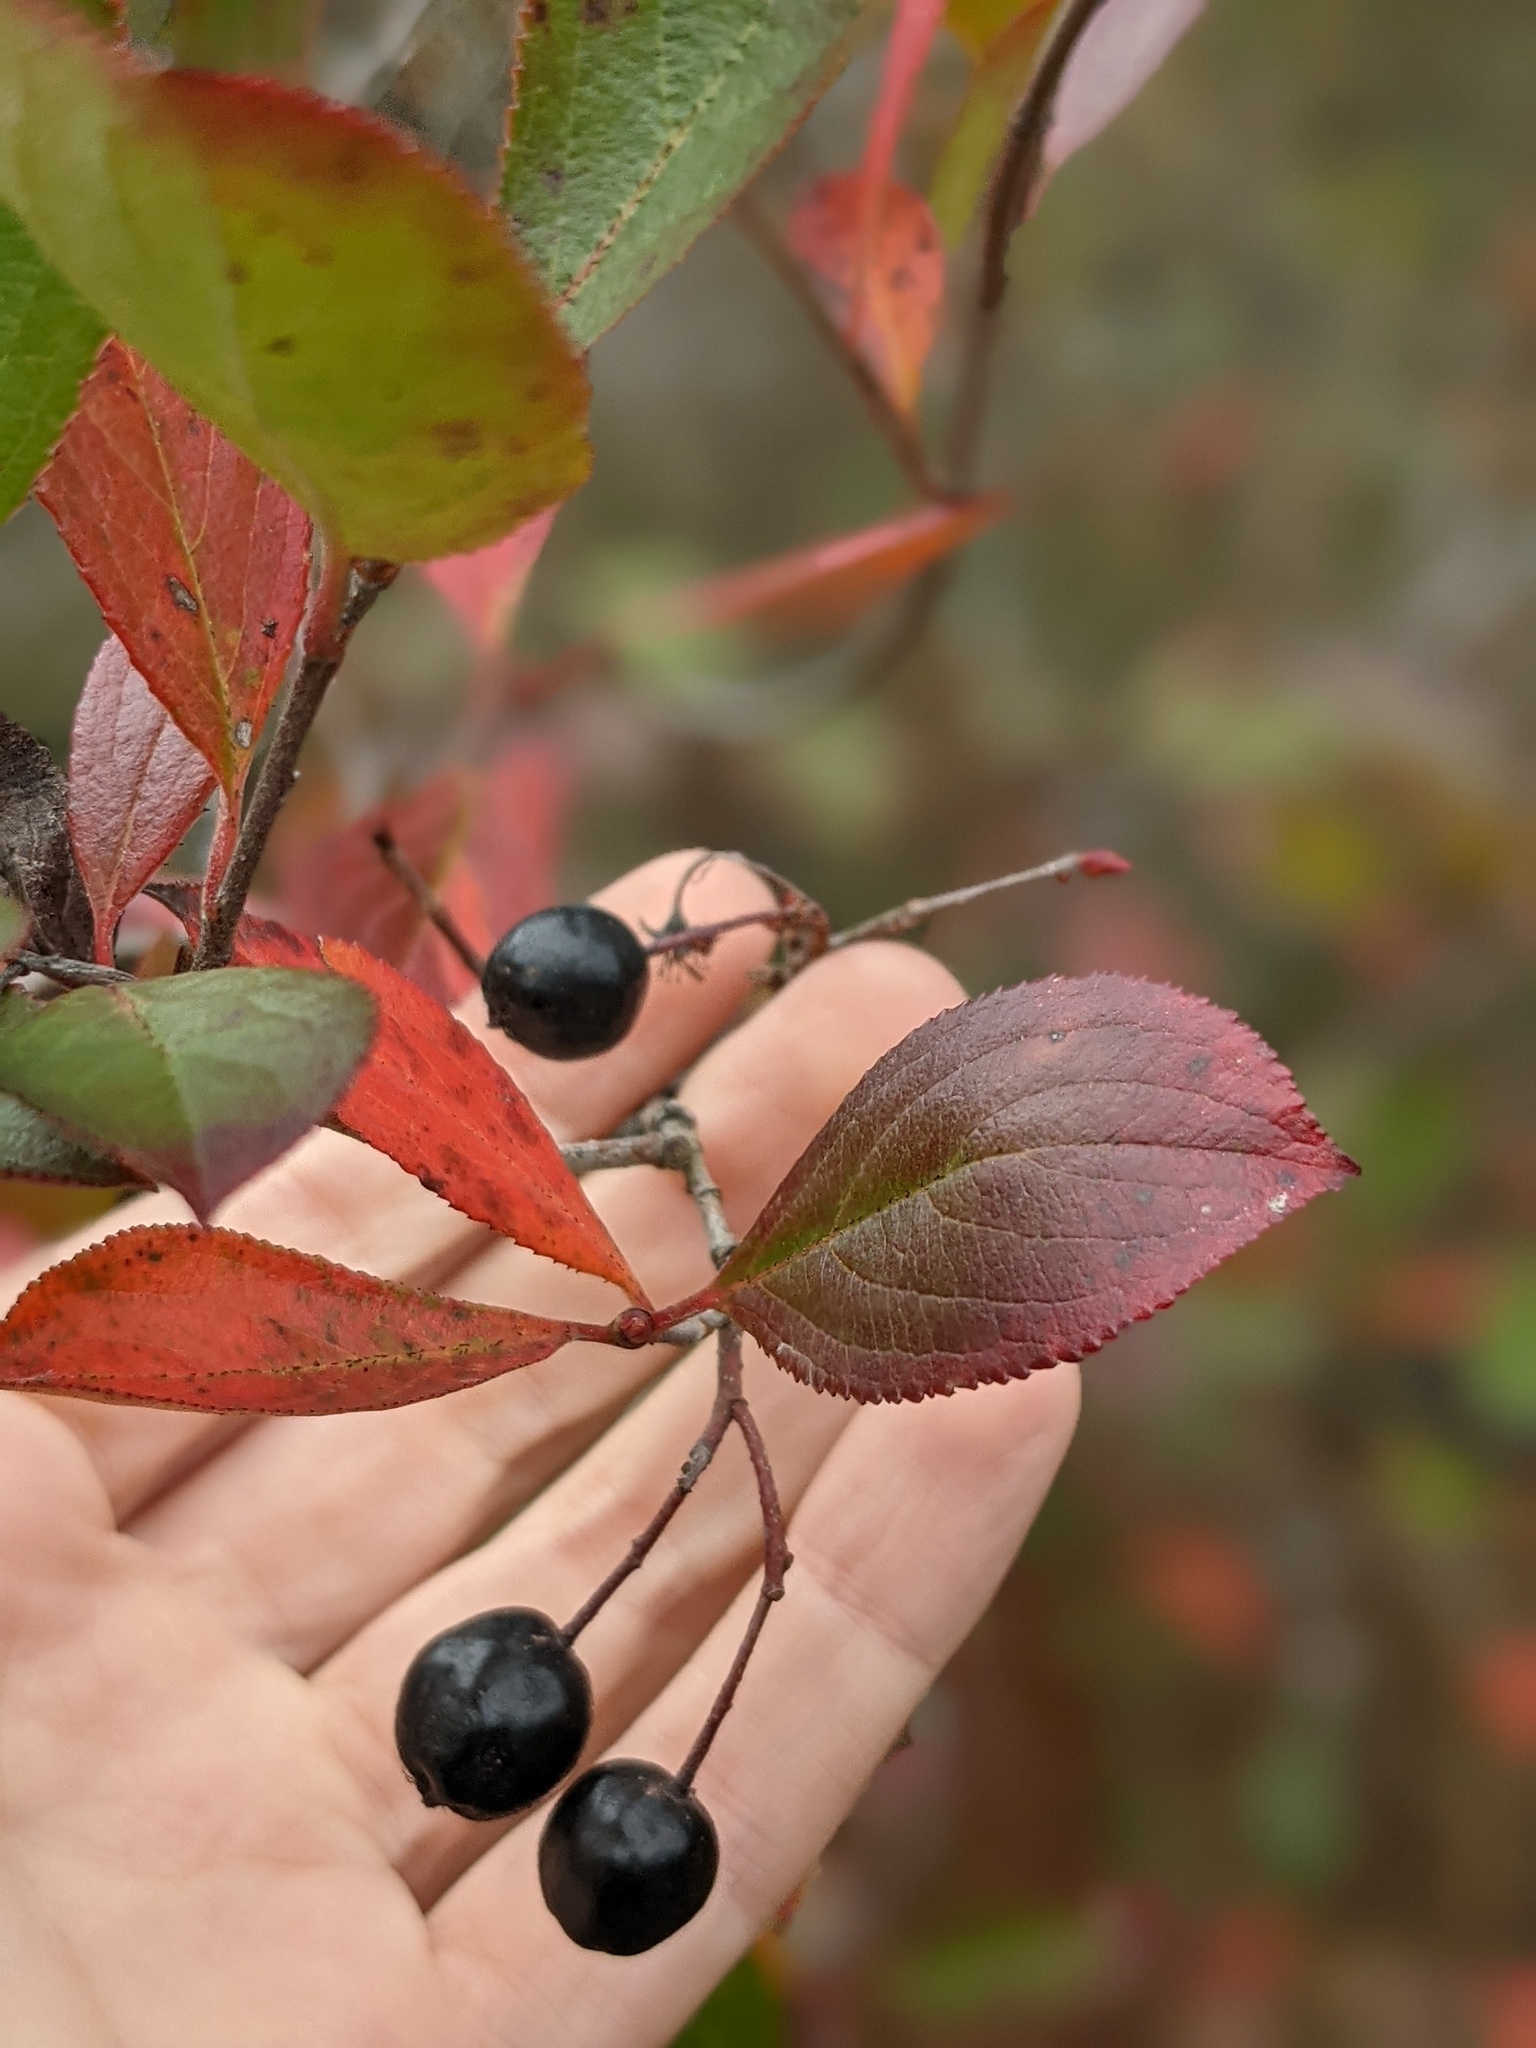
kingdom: Plantae
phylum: Tracheophyta
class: Magnoliopsida
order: Rosales
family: Rosaceae
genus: Aronia
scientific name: Aronia melanocarpa
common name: Black chokeberry
